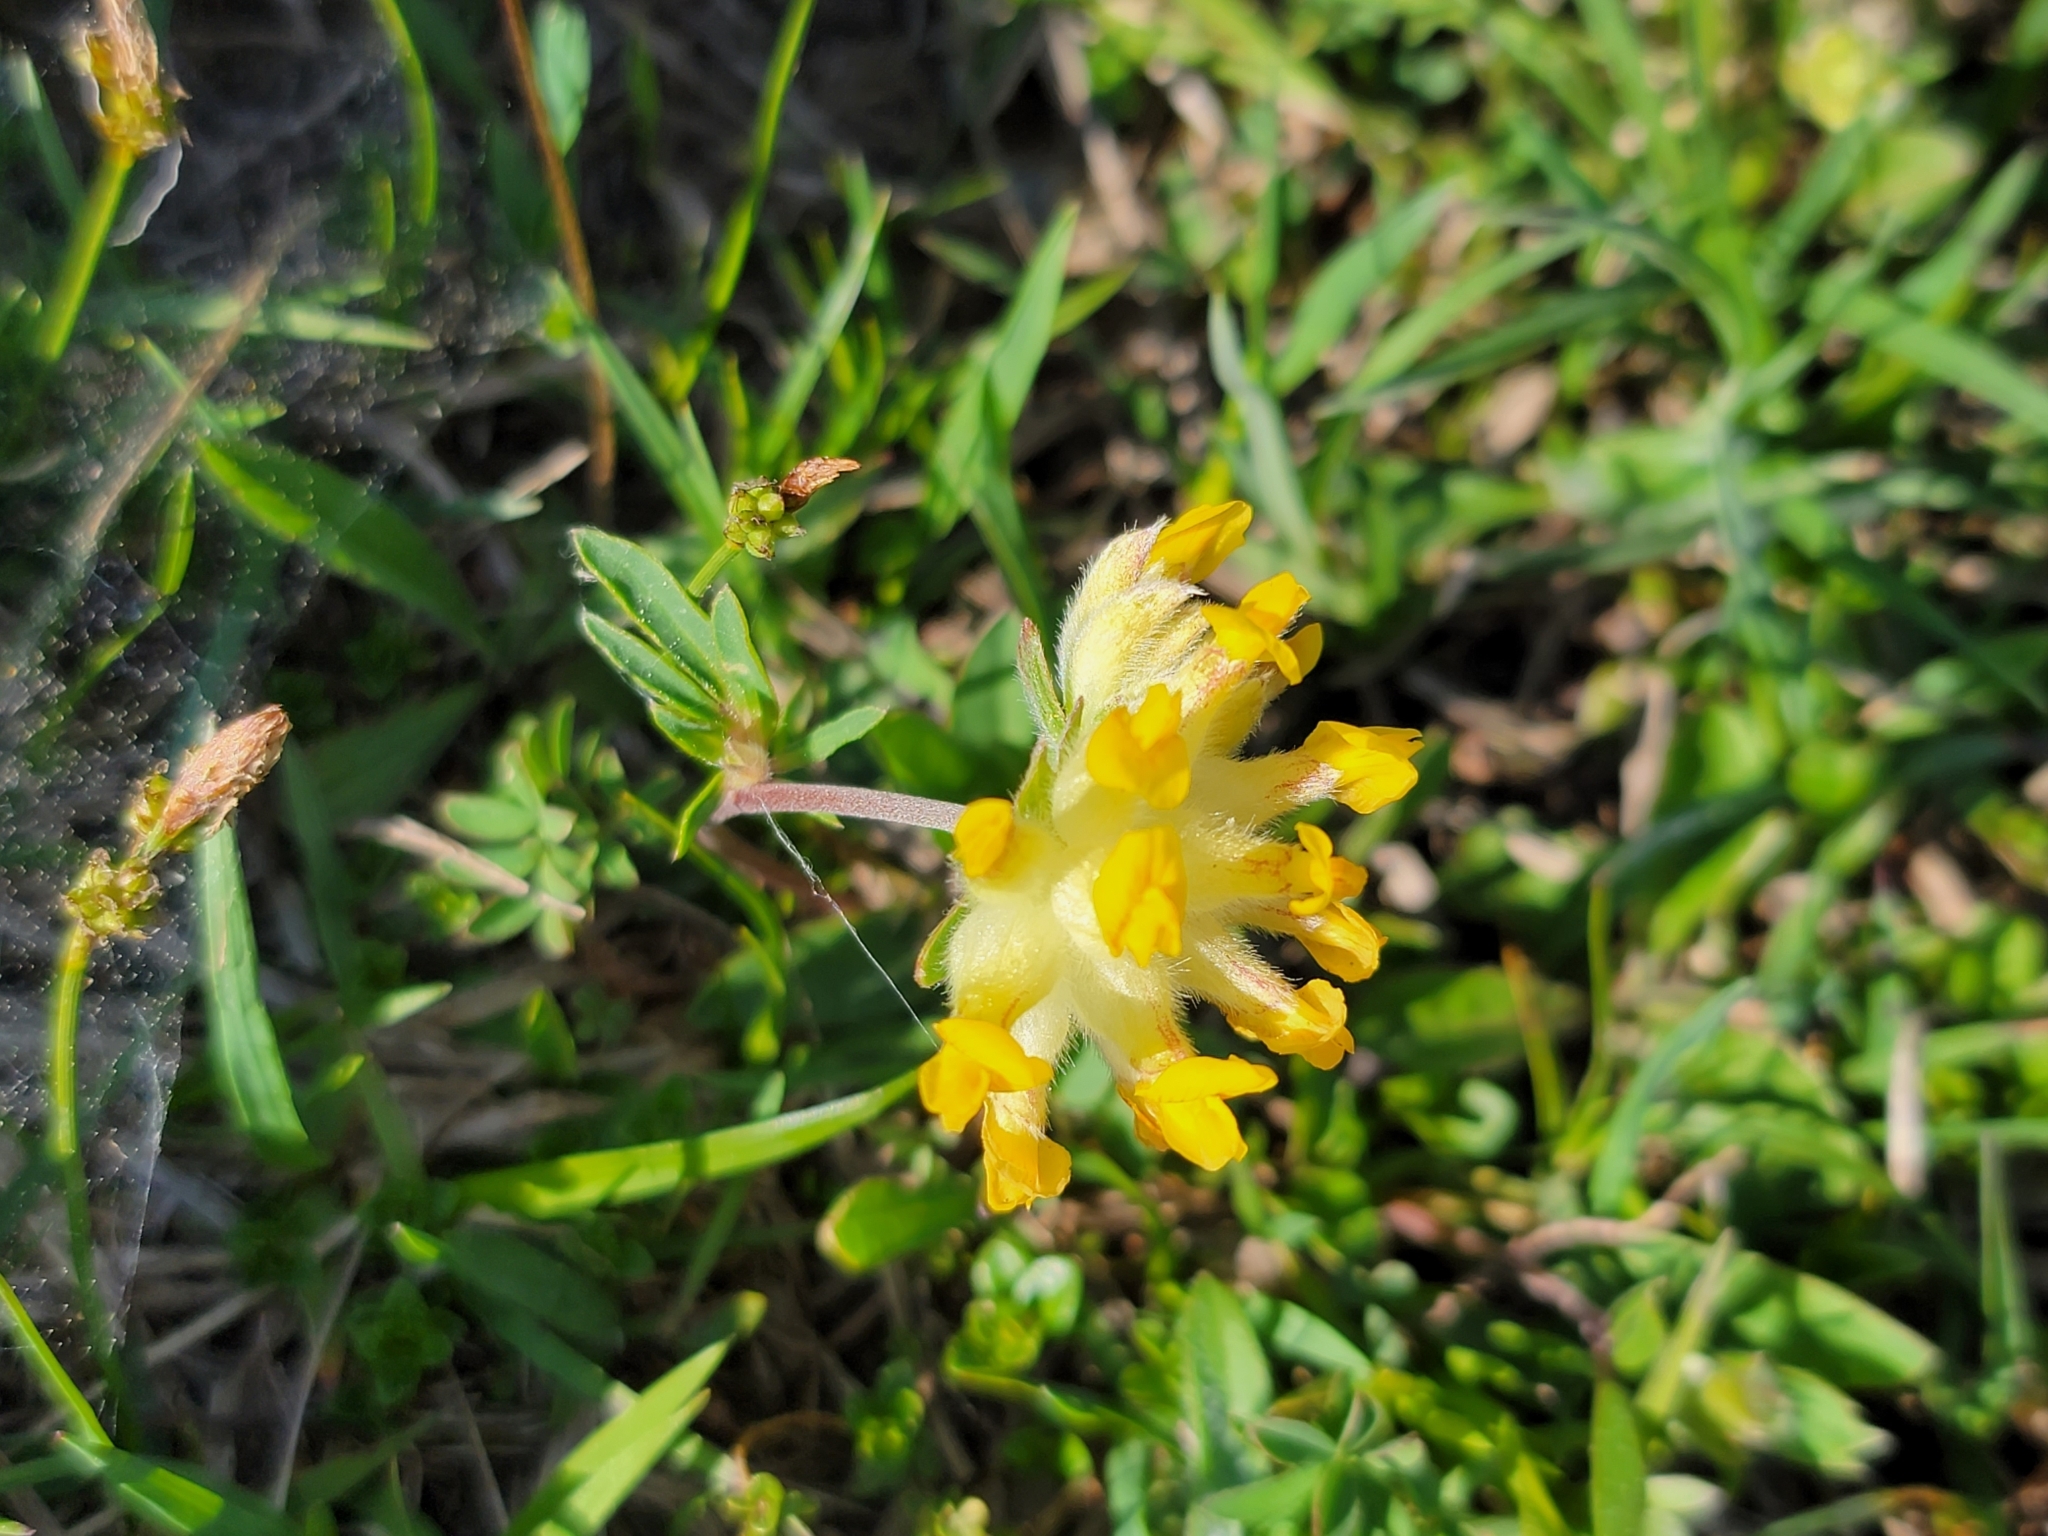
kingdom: Plantae
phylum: Tracheophyta
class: Magnoliopsida
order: Fabales
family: Fabaceae
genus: Anthyllis
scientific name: Anthyllis vulneraria
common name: Kidney vetch
